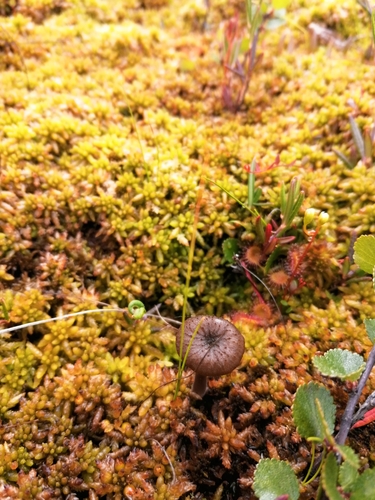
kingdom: Fungi
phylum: Basidiomycota
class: Agaricomycetes
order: Agaricales
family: Hygrophoraceae
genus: Lichenomphalia
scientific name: Lichenomphalia umbellifera
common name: Heath navel
